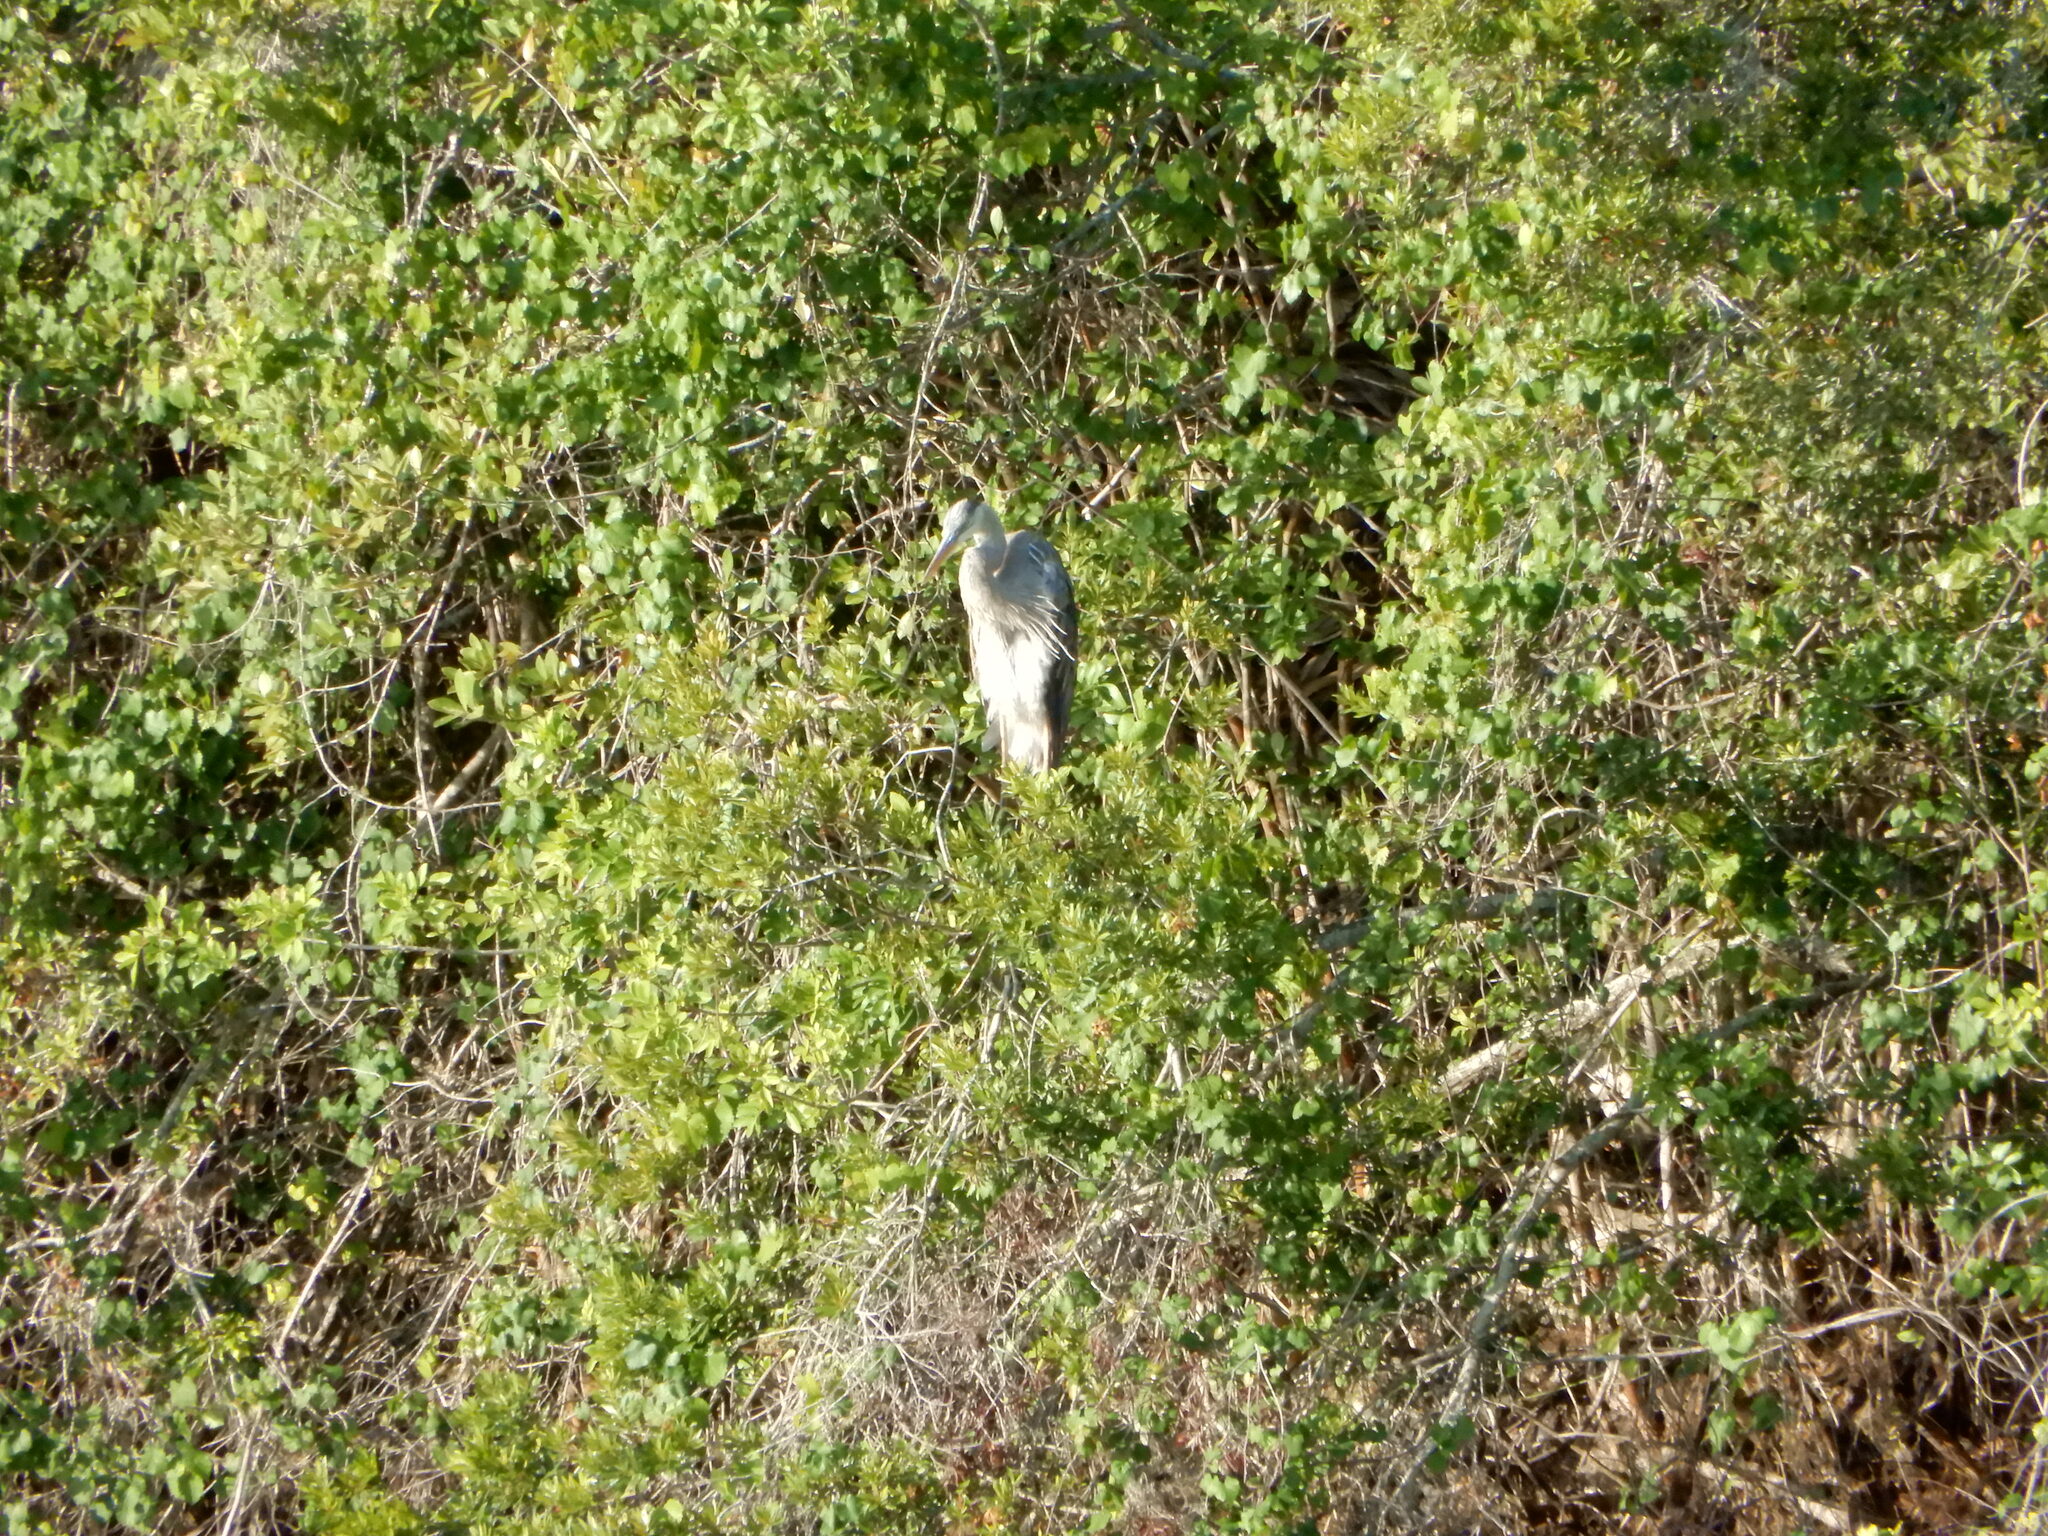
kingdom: Animalia
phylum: Chordata
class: Aves
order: Pelecaniformes
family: Ardeidae
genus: Ardea
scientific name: Ardea herodias
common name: Great blue heron
